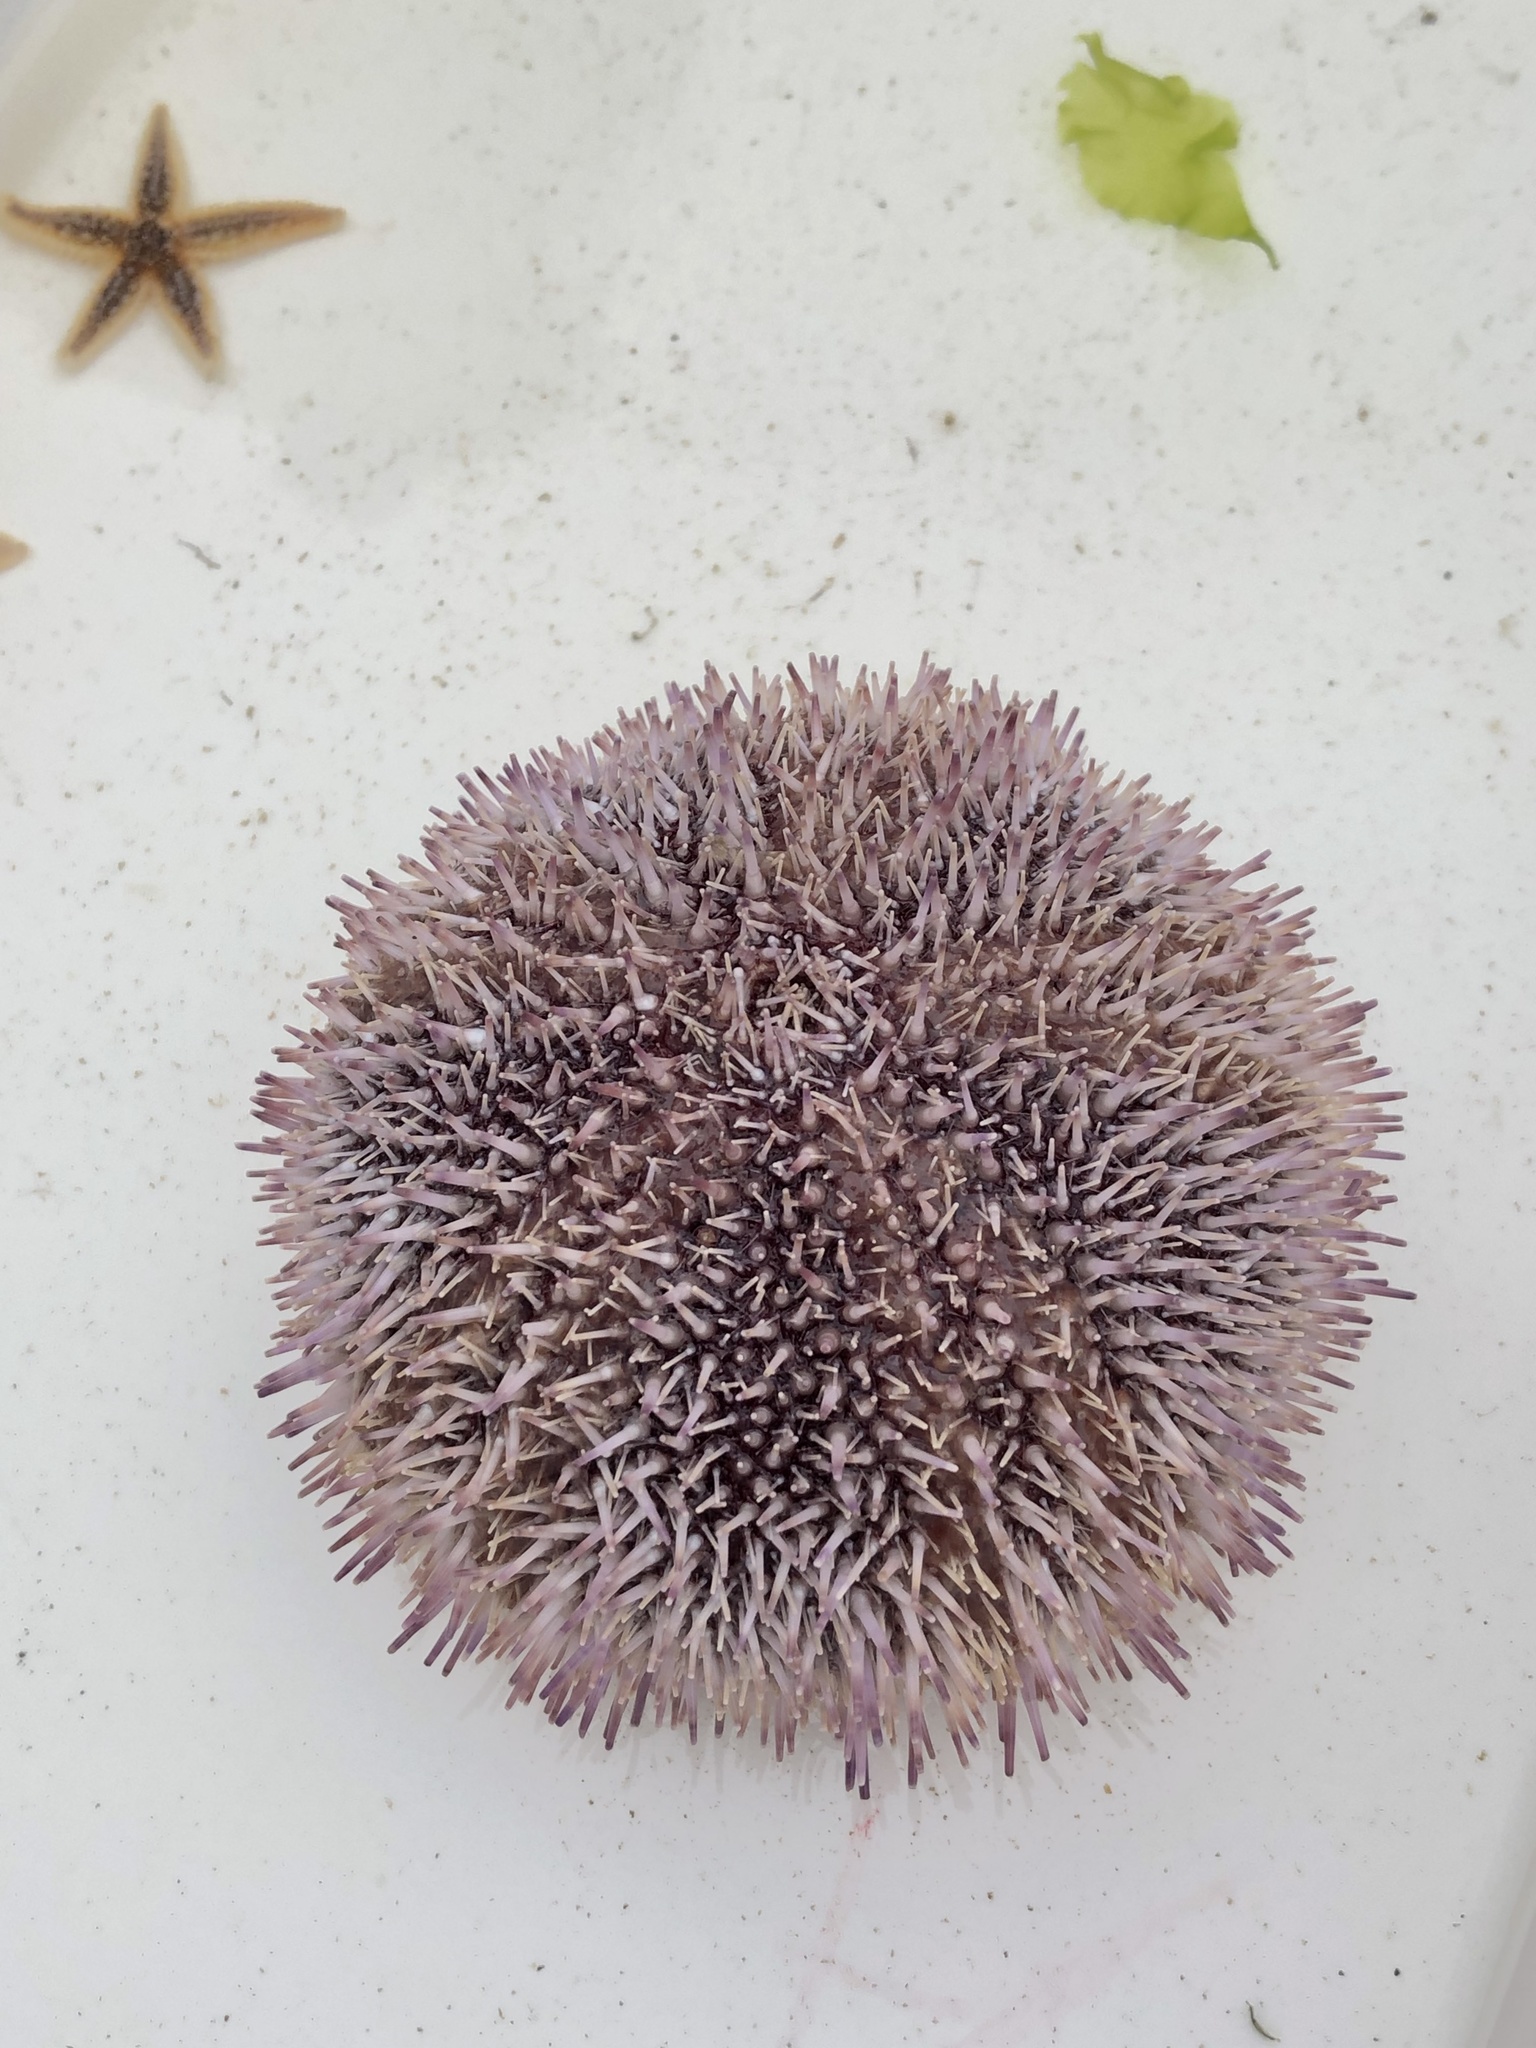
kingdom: Animalia
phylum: Echinodermata
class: Echinoidea
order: Camarodonta
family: Echinidae
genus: Echinus
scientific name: Echinus esculentus
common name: Edible sea urchin
